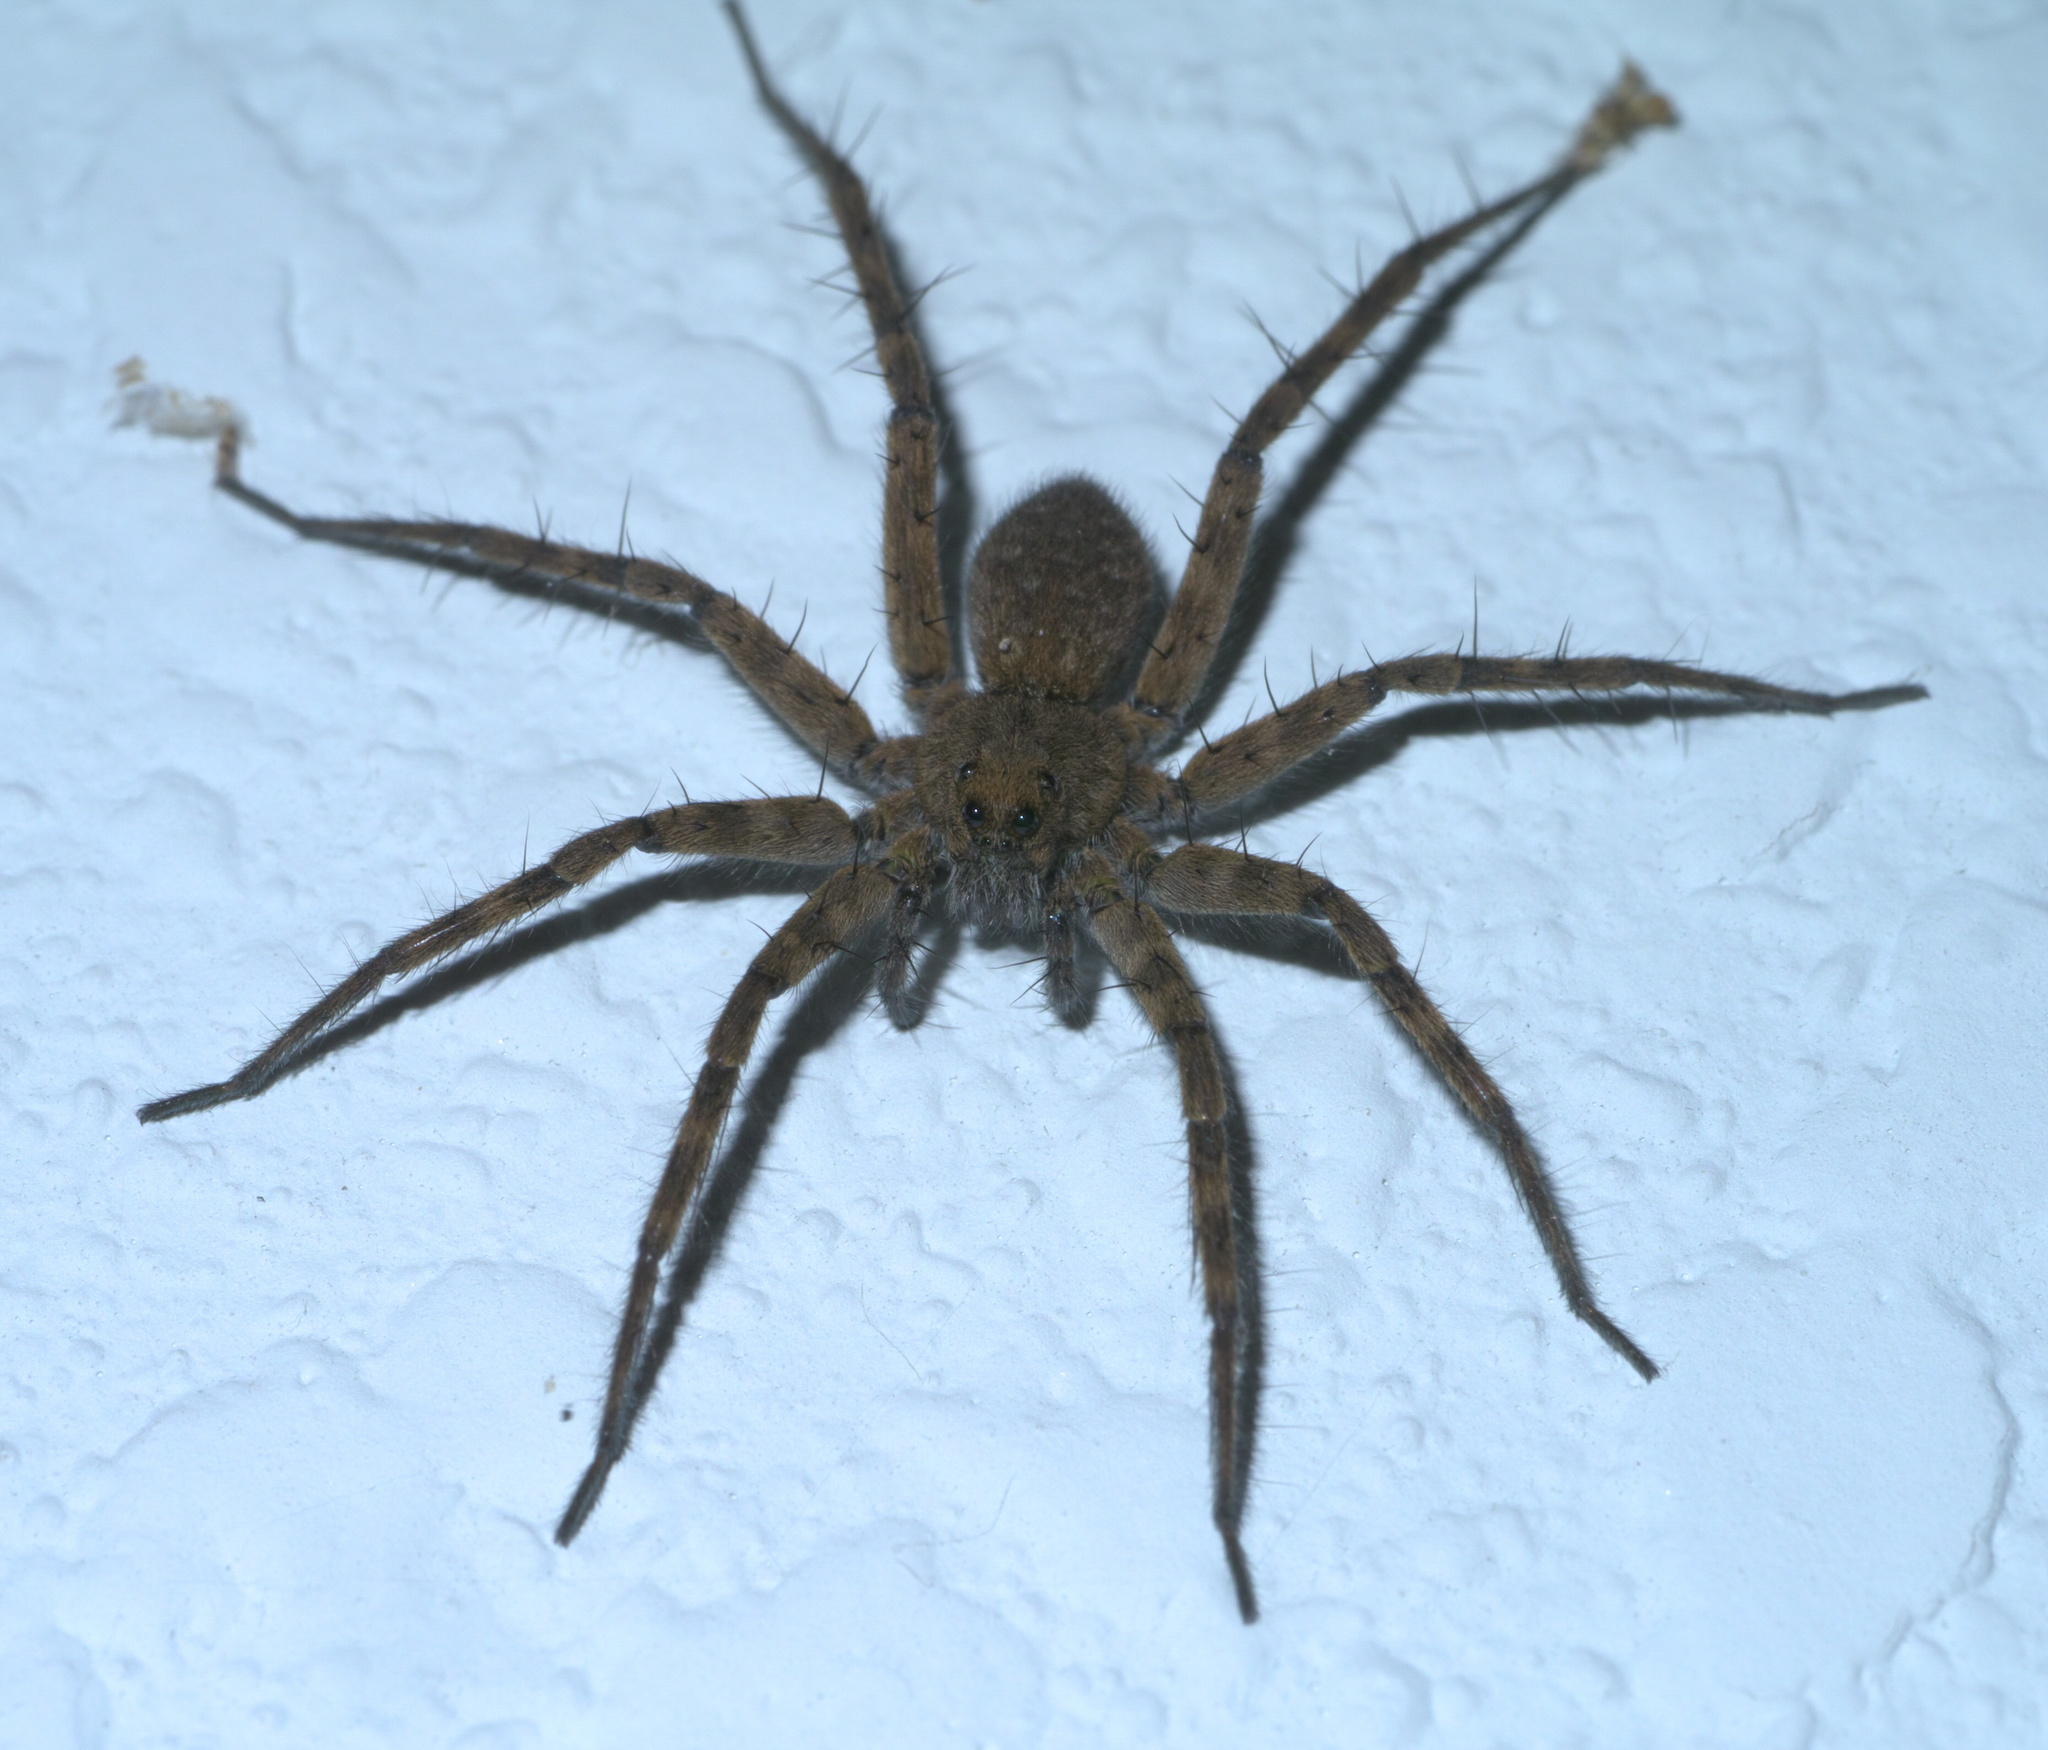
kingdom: Animalia
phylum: Arthropoda
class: Arachnida
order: Araneae
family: Lycosidae
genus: Pardosa
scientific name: Pardosa mercurialis
